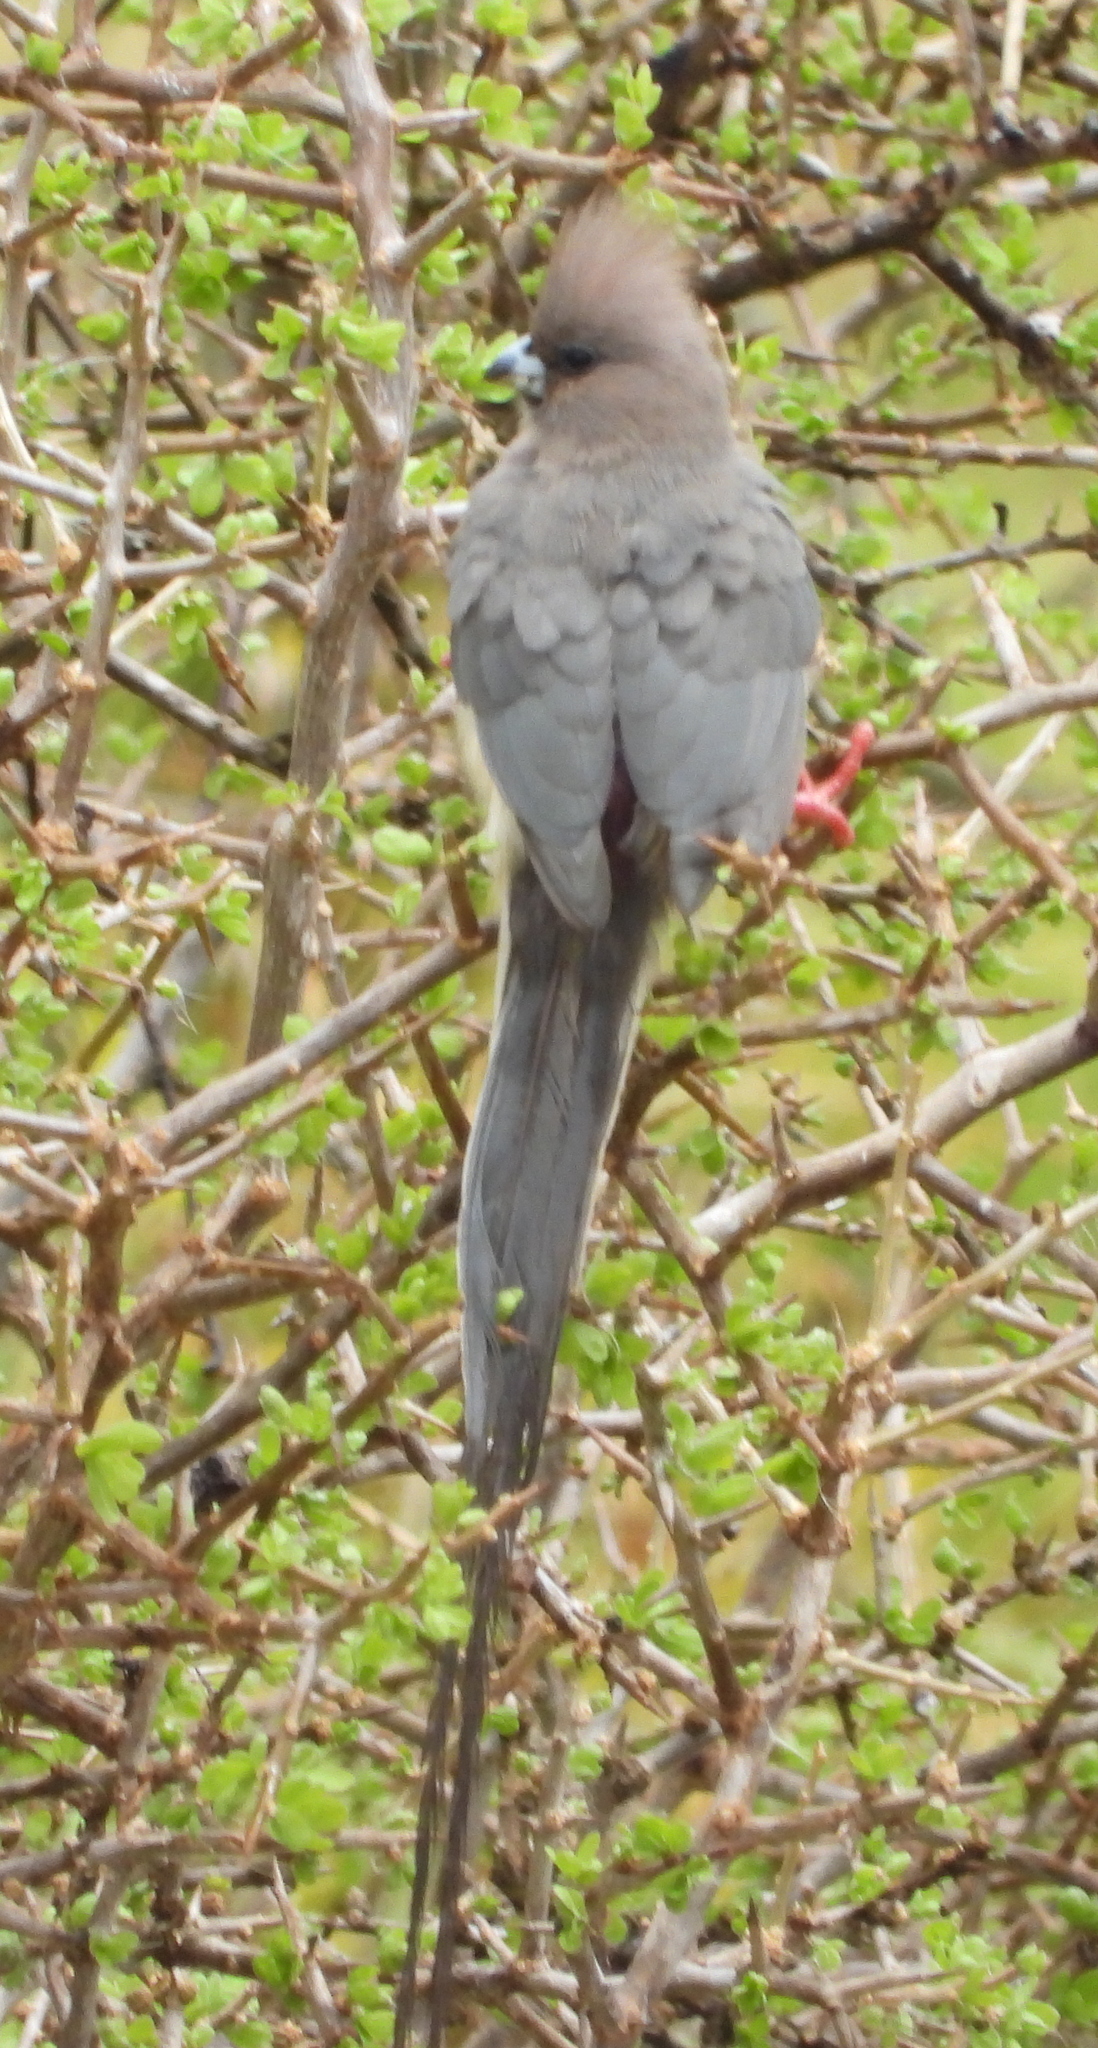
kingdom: Animalia
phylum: Chordata
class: Aves
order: Coliiformes
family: Coliidae
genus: Colius
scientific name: Colius colius
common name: White-backed mousebird
